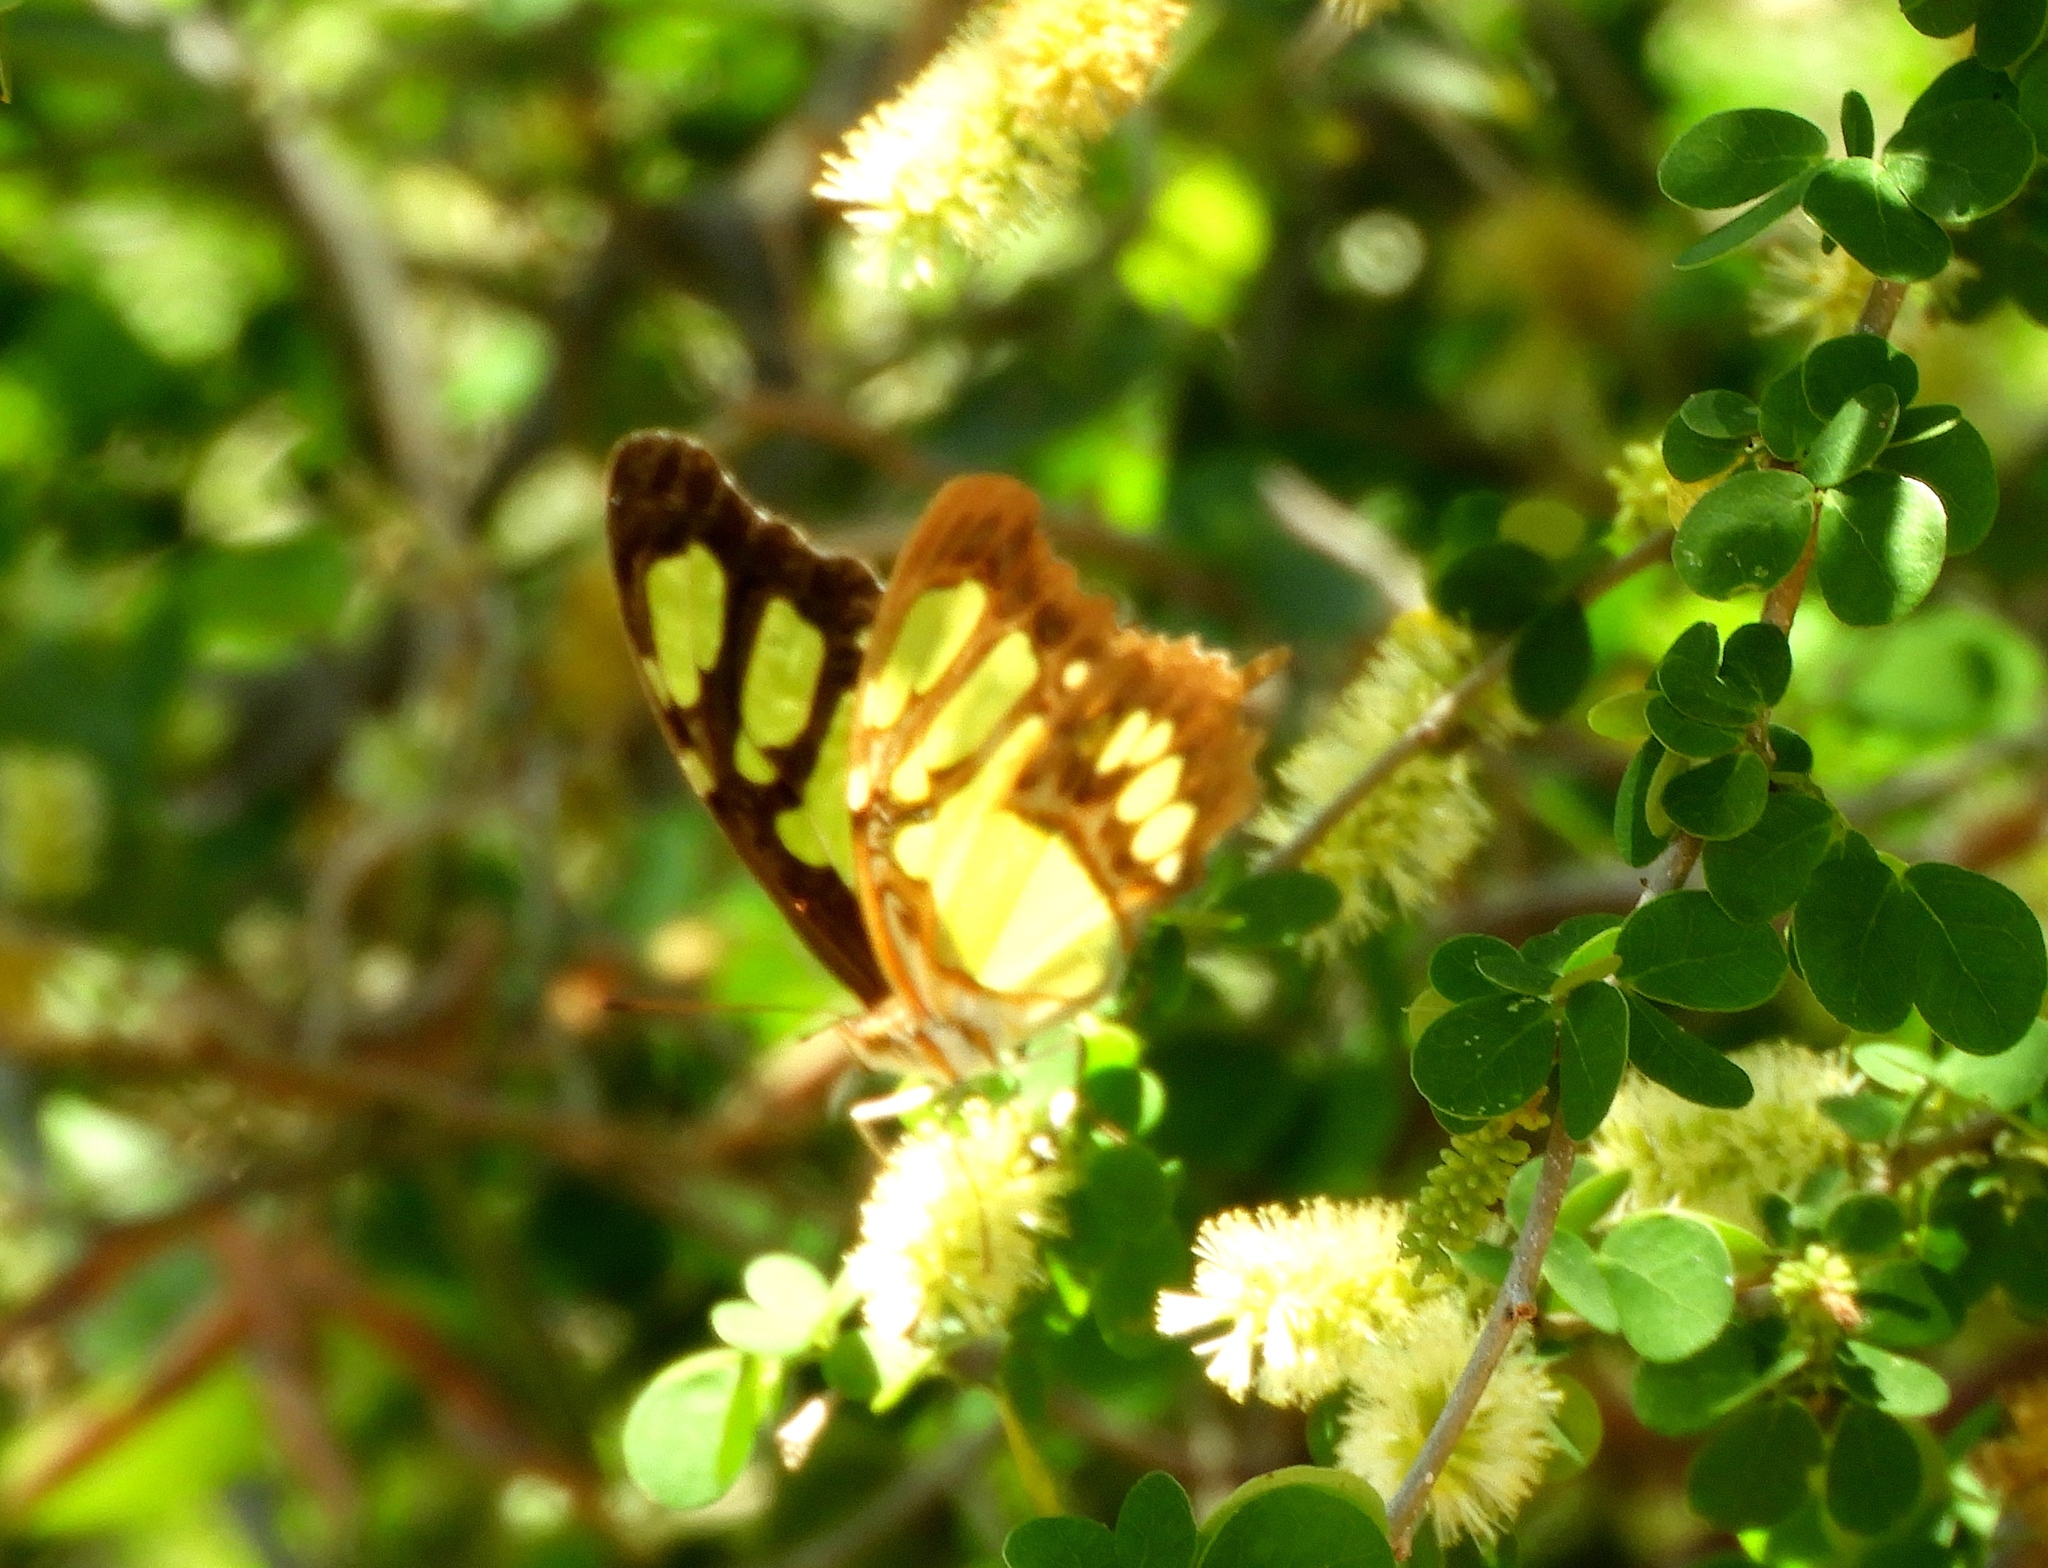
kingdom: Animalia
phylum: Arthropoda
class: Insecta
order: Lepidoptera
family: Nymphalidae
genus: Siproeta
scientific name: Siproeta stelenes
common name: Malachite
